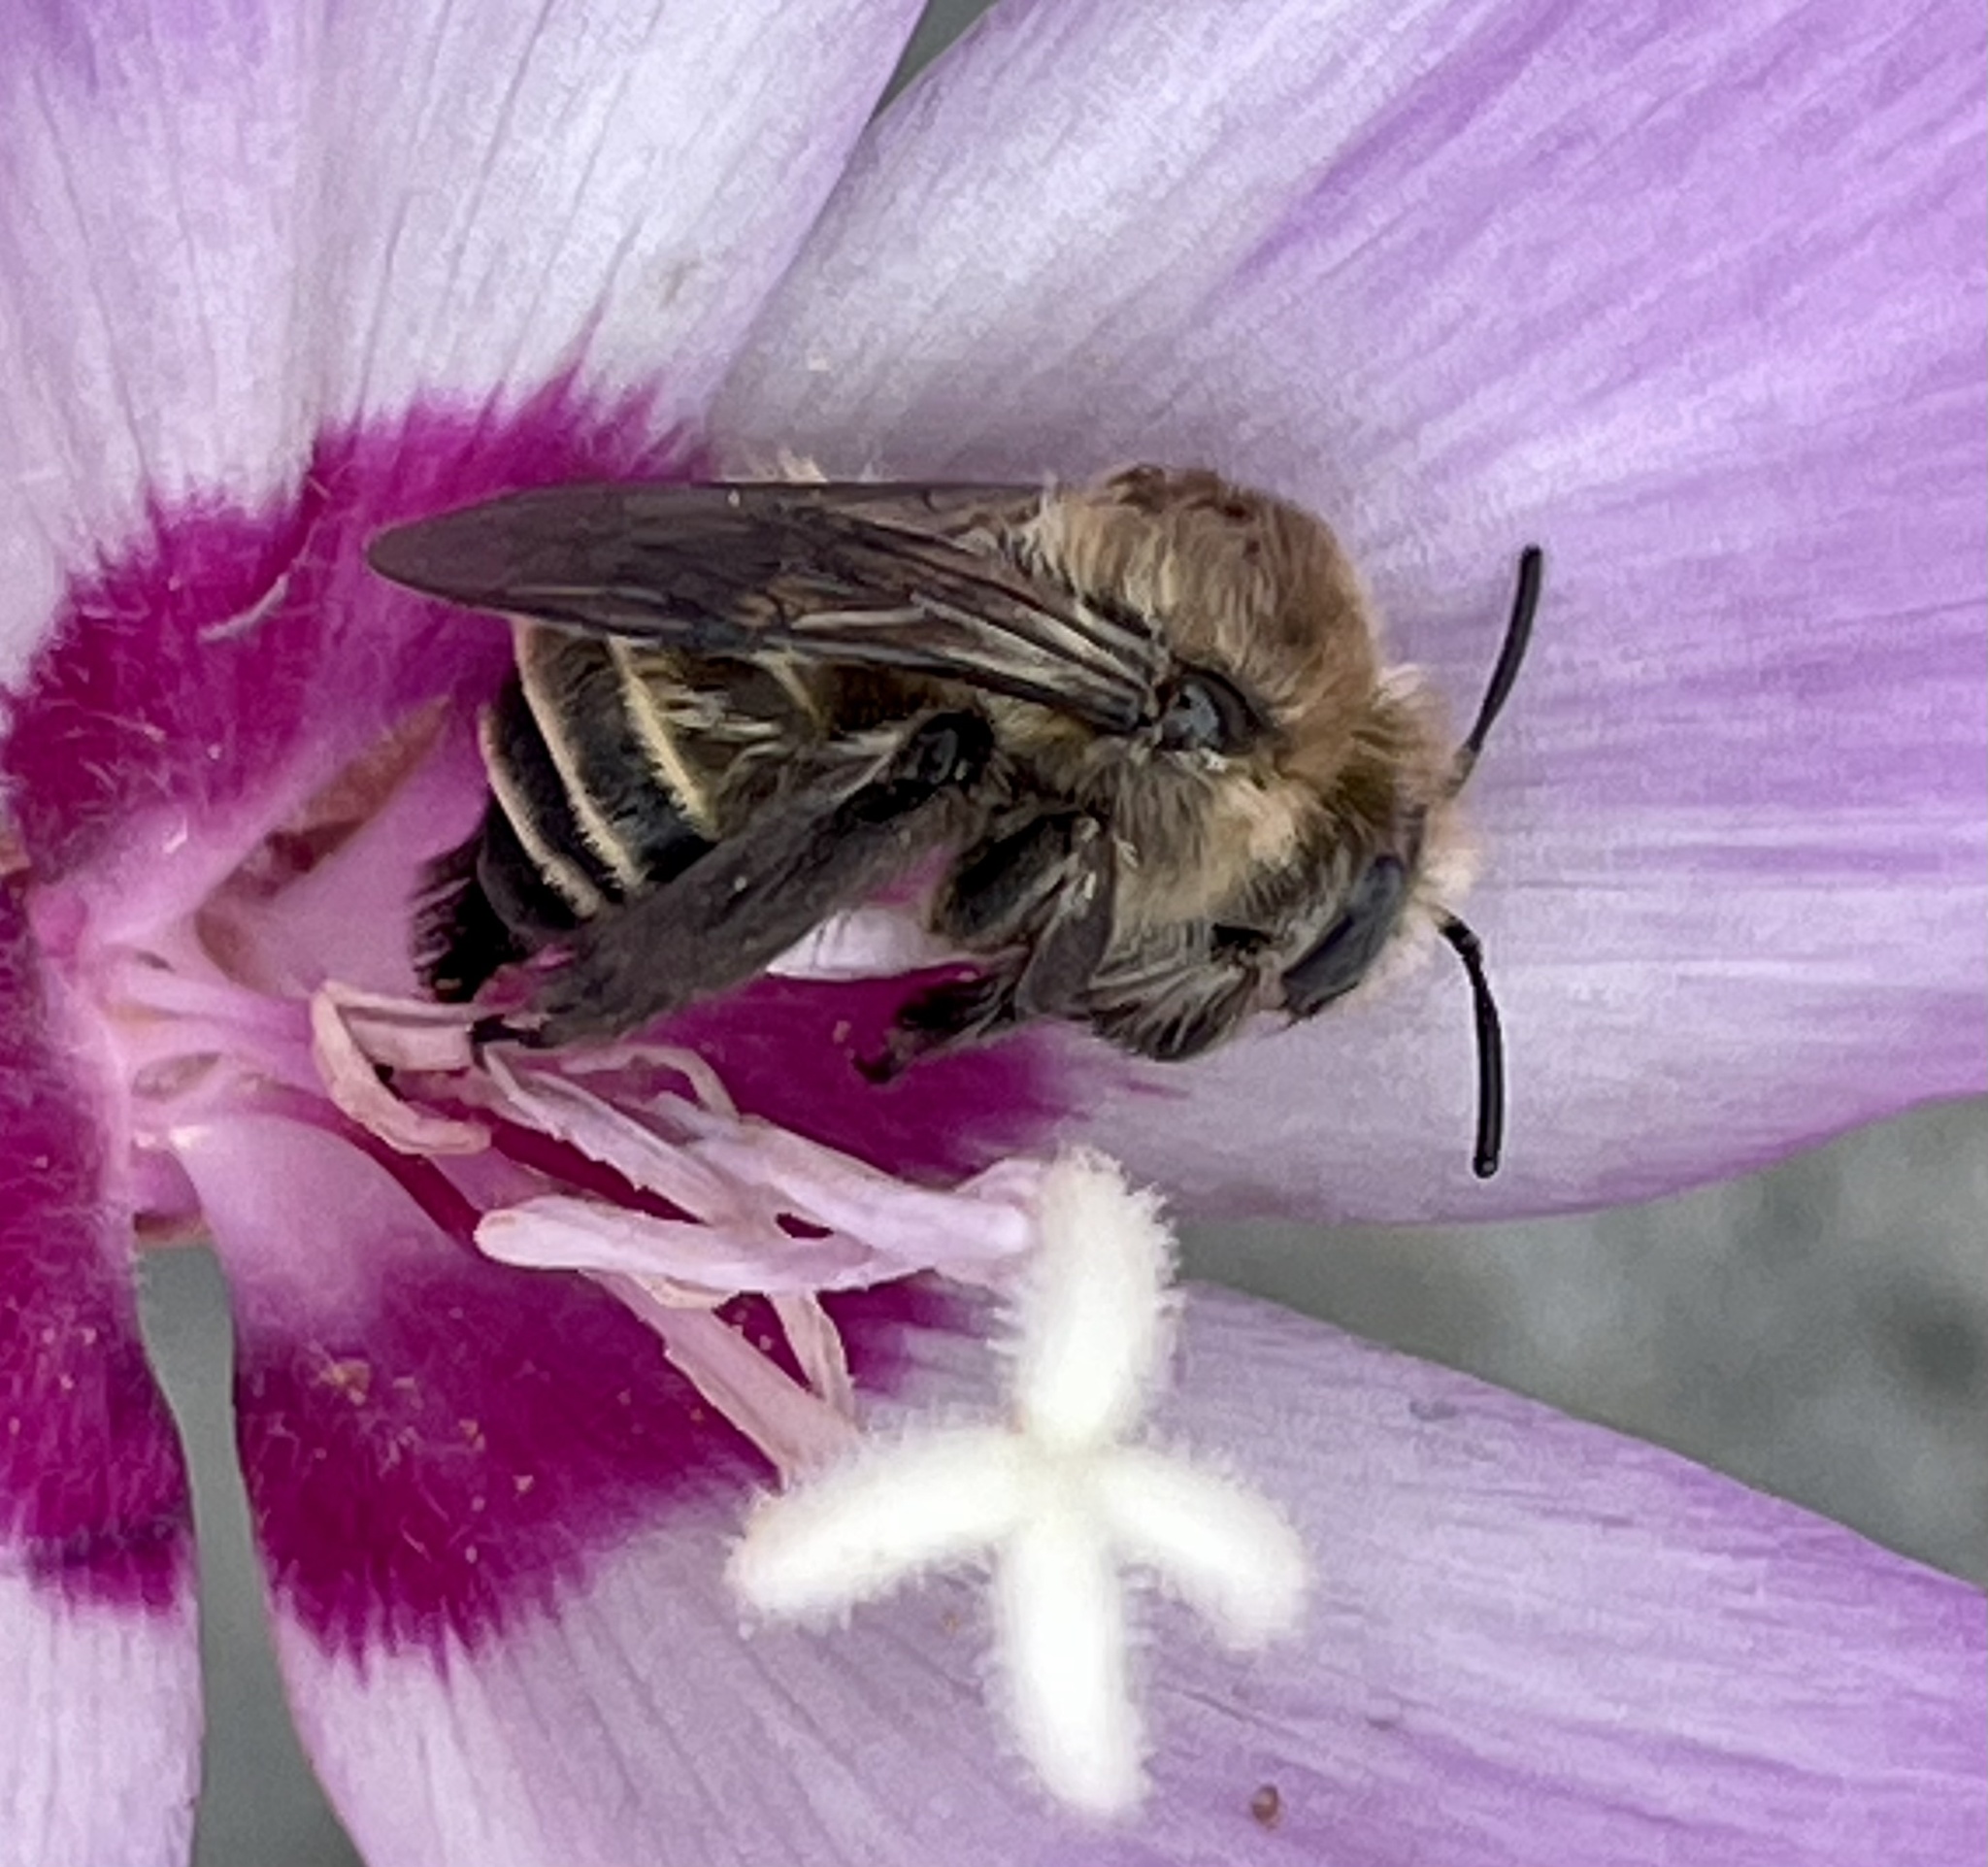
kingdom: Animalia
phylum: Arthropoda
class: Insecta
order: Hymenoptera
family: Apidae
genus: Diadasia
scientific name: Diadasia bituberculata
